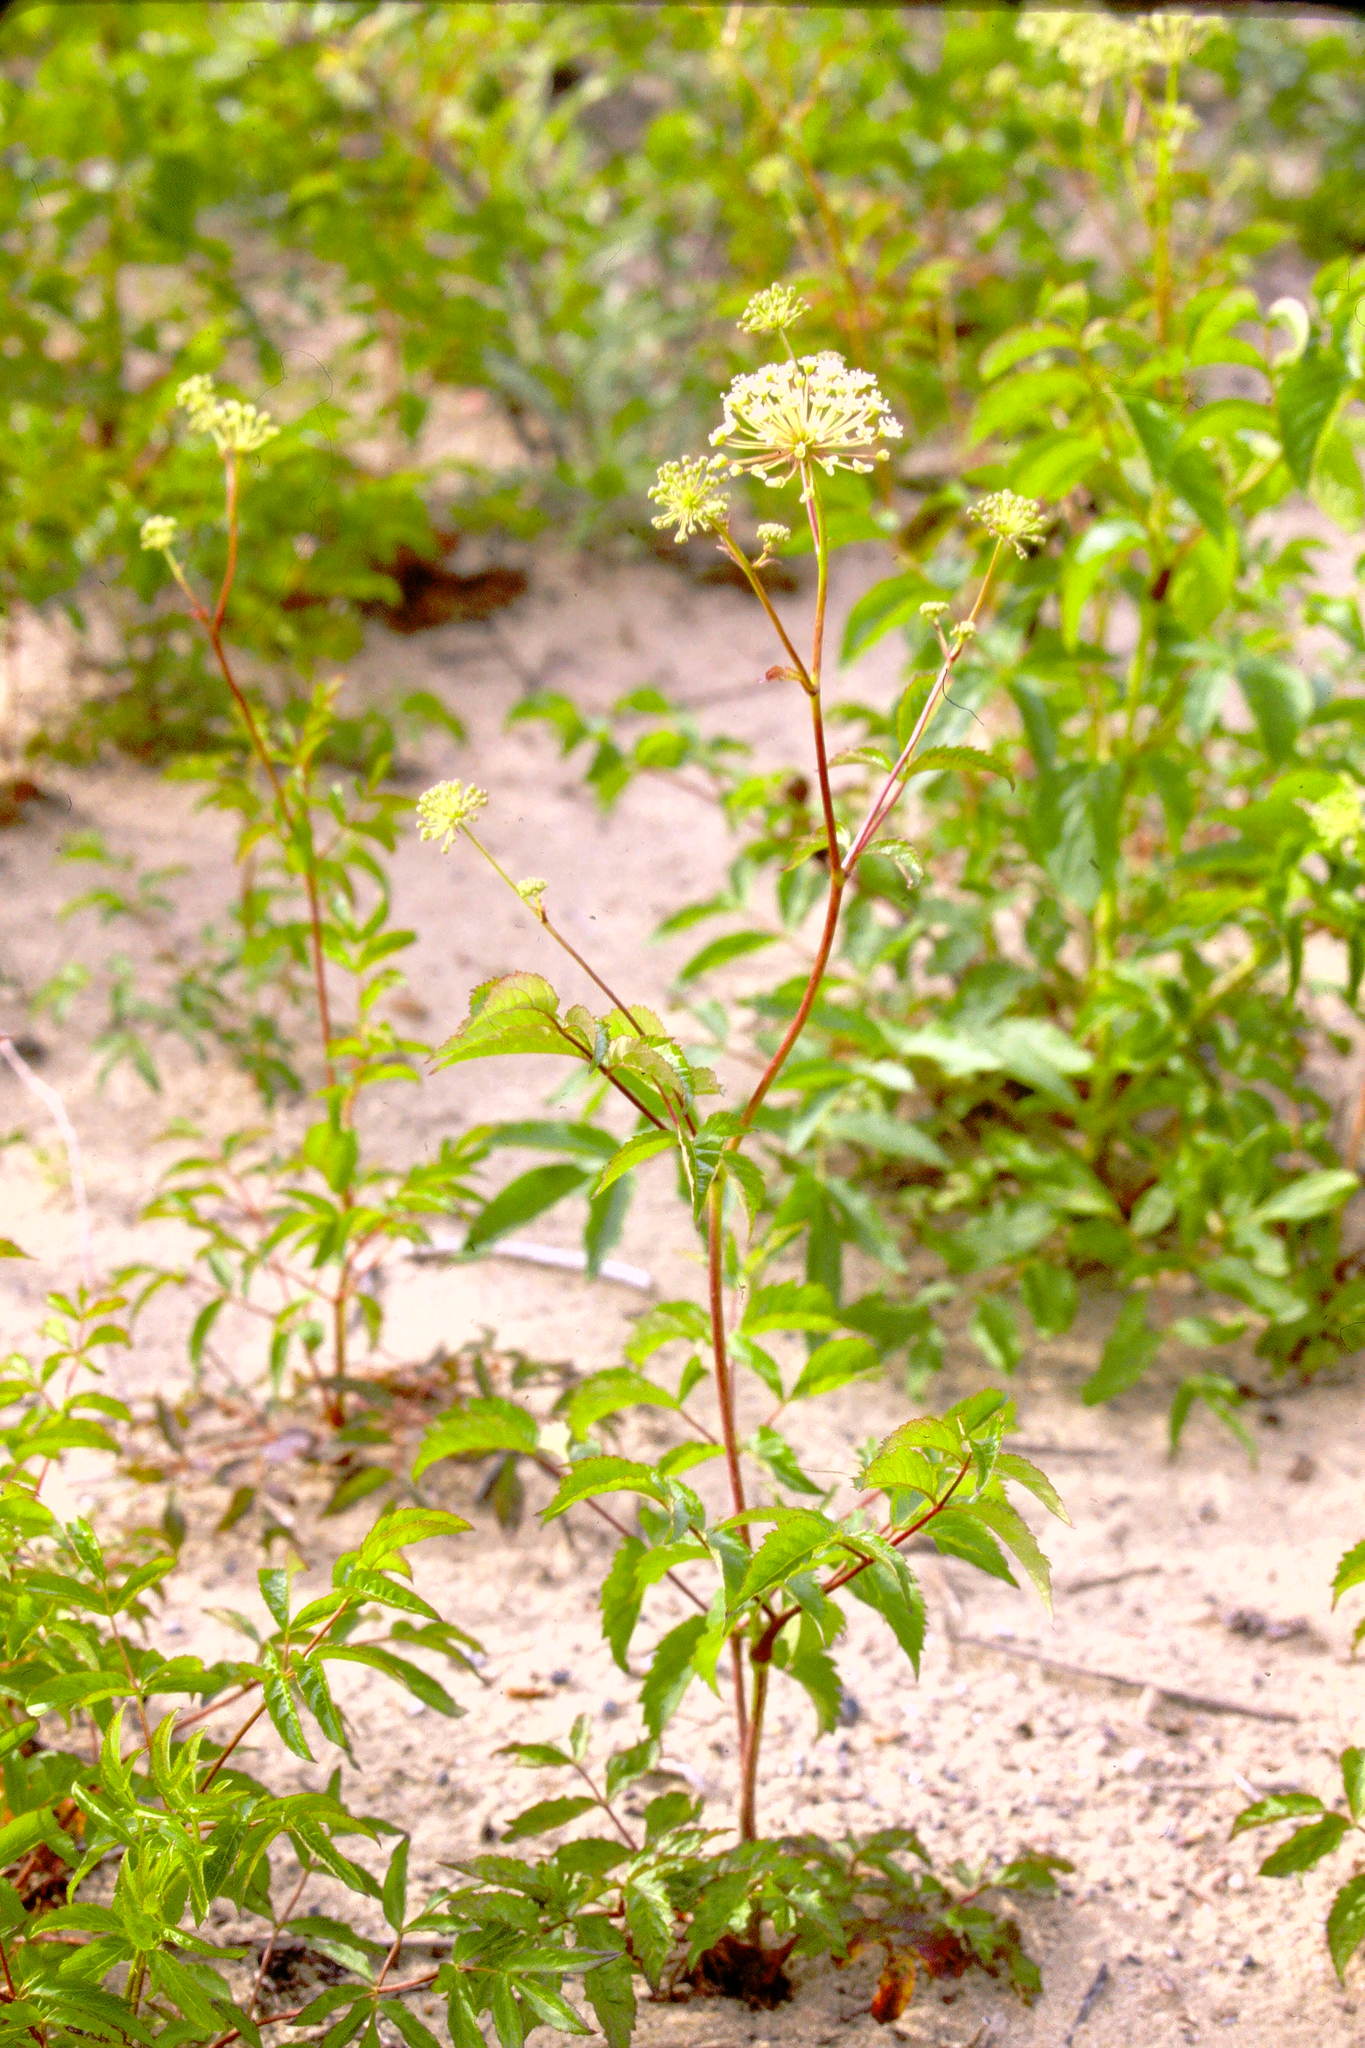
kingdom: Plantae
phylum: Tracheophyta
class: Magnoliopsida
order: Apiales
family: Araliaceae
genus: Aralia
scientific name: Aralia hispida
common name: Bristly sarsaparilla
